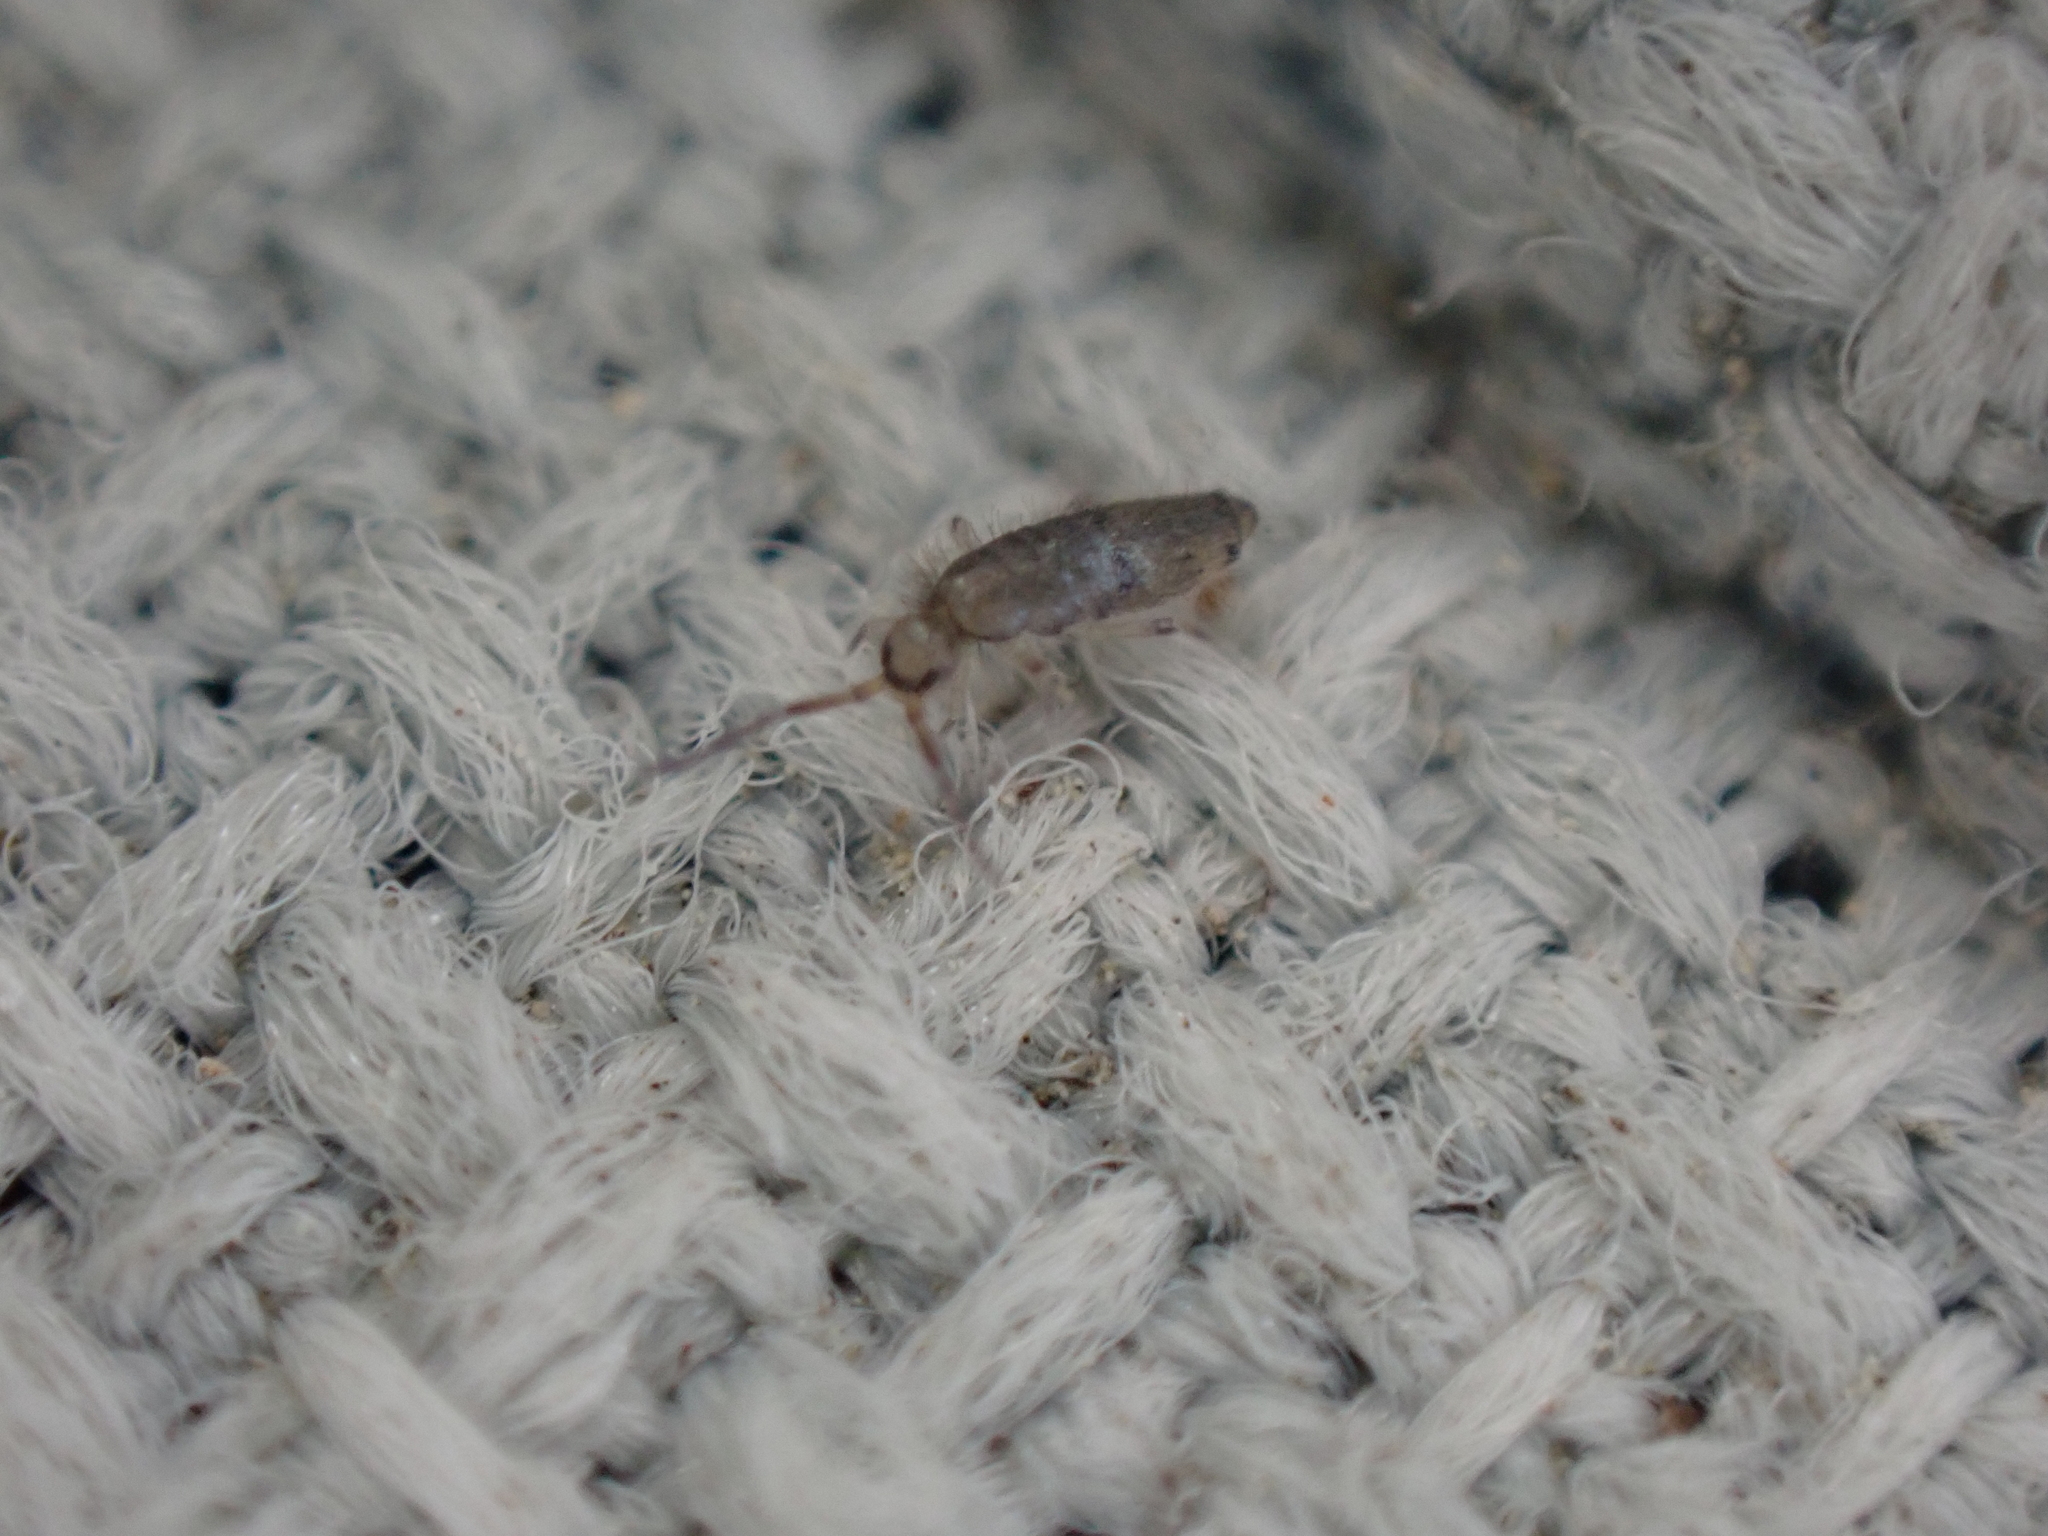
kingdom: Animalia
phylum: Arthropoda
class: Collembola
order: Entomobryomorpha
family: Entomobryidae
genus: Willowsia
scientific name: Willowsia nigromaculata
